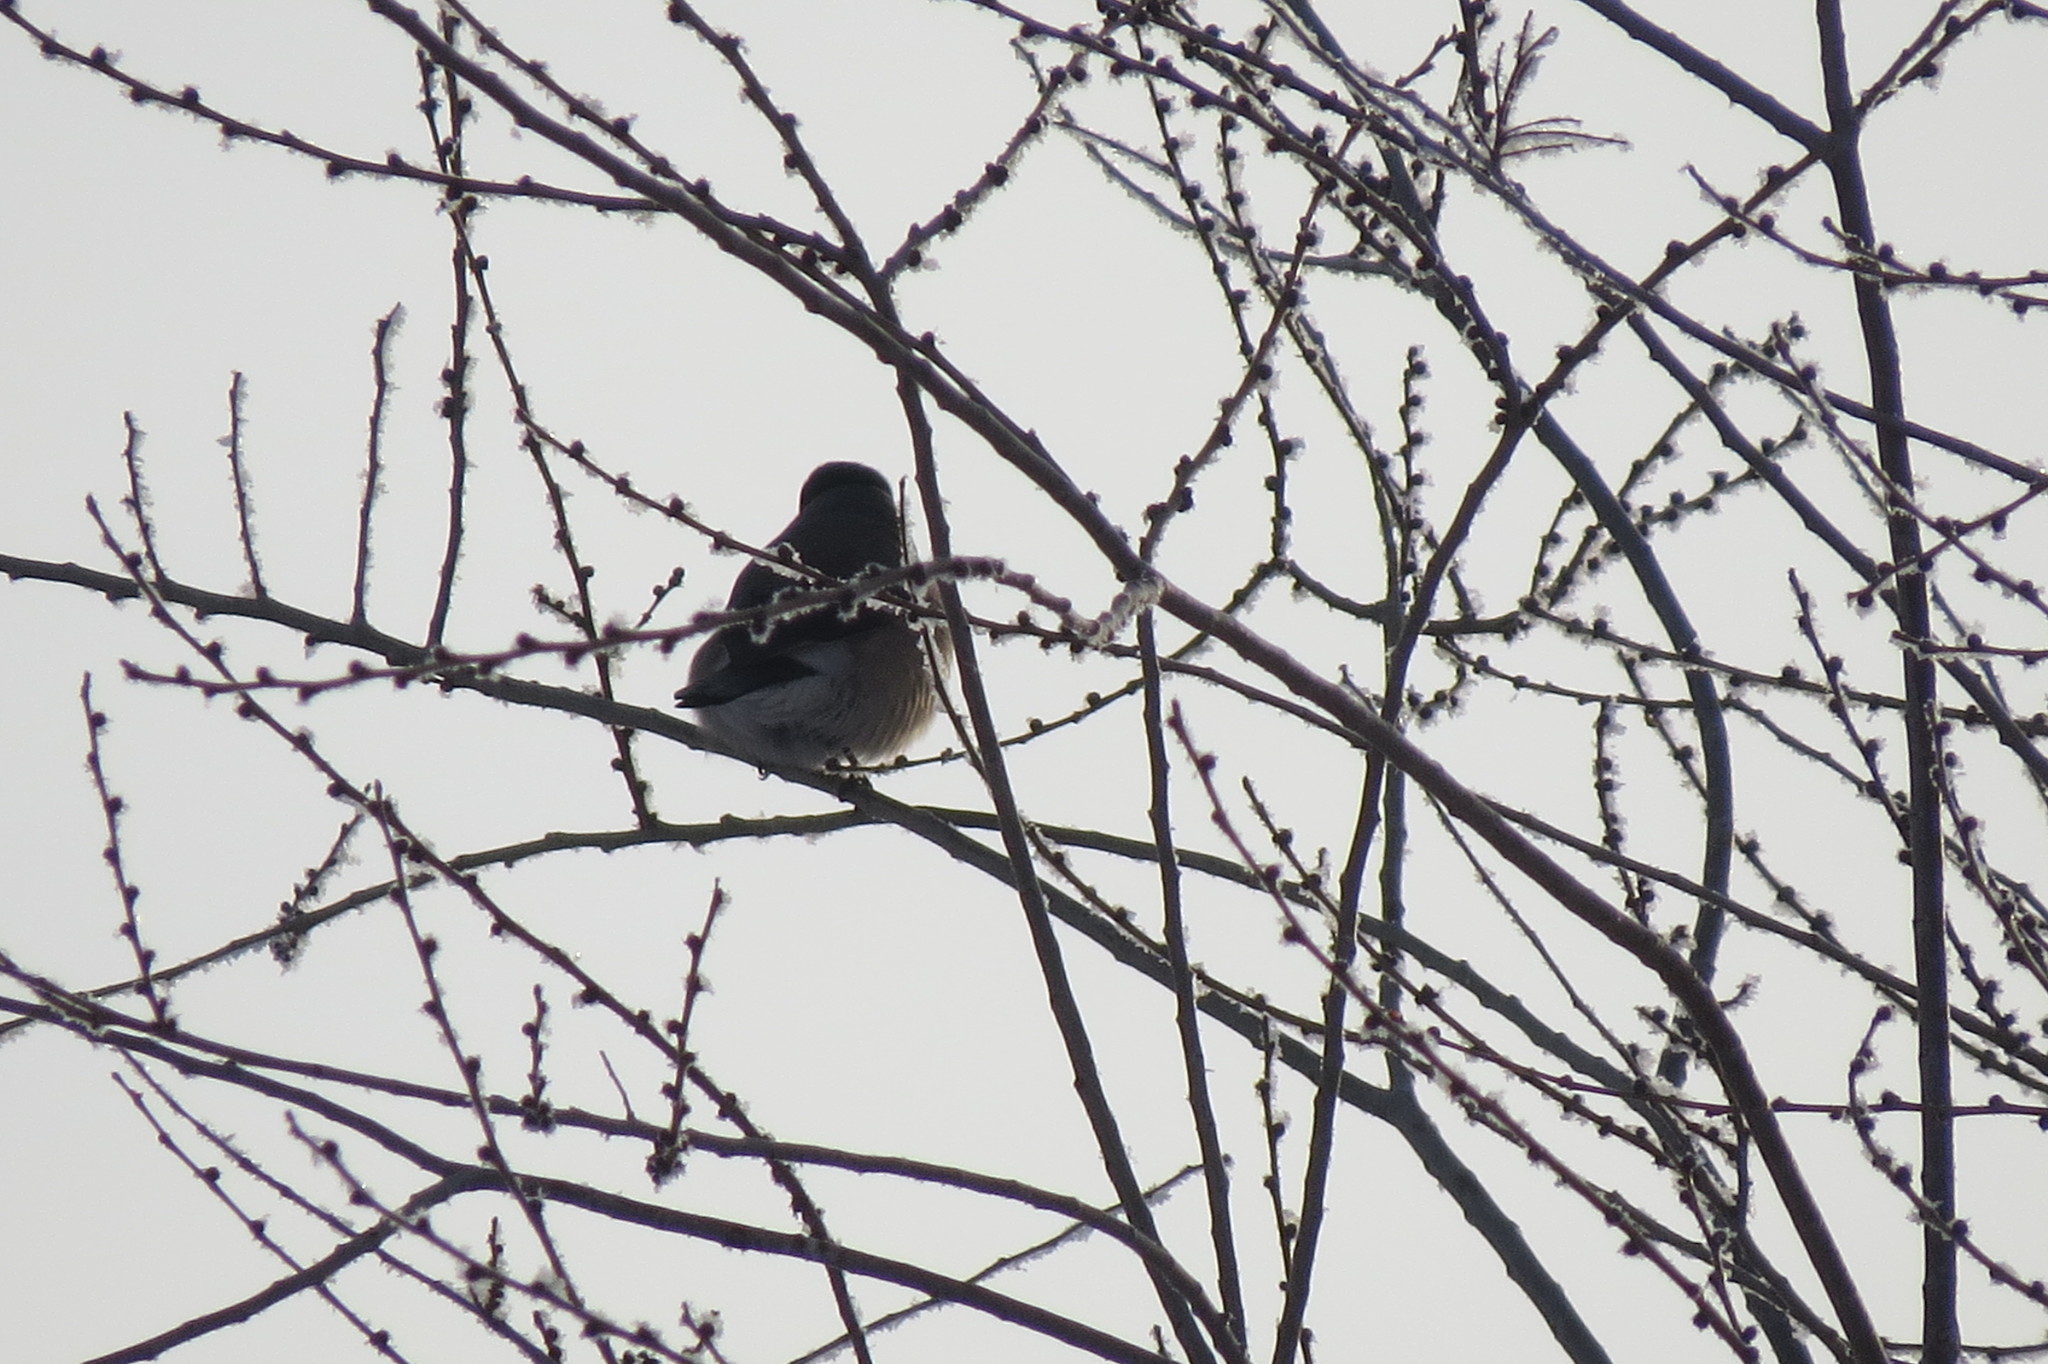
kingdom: Animalia
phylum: Chordata
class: Aves
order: Passeriformes
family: Fringillidae
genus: Pyrrhula
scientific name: Pyrrhula pyrrhula
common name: Eurasian bullfinch
